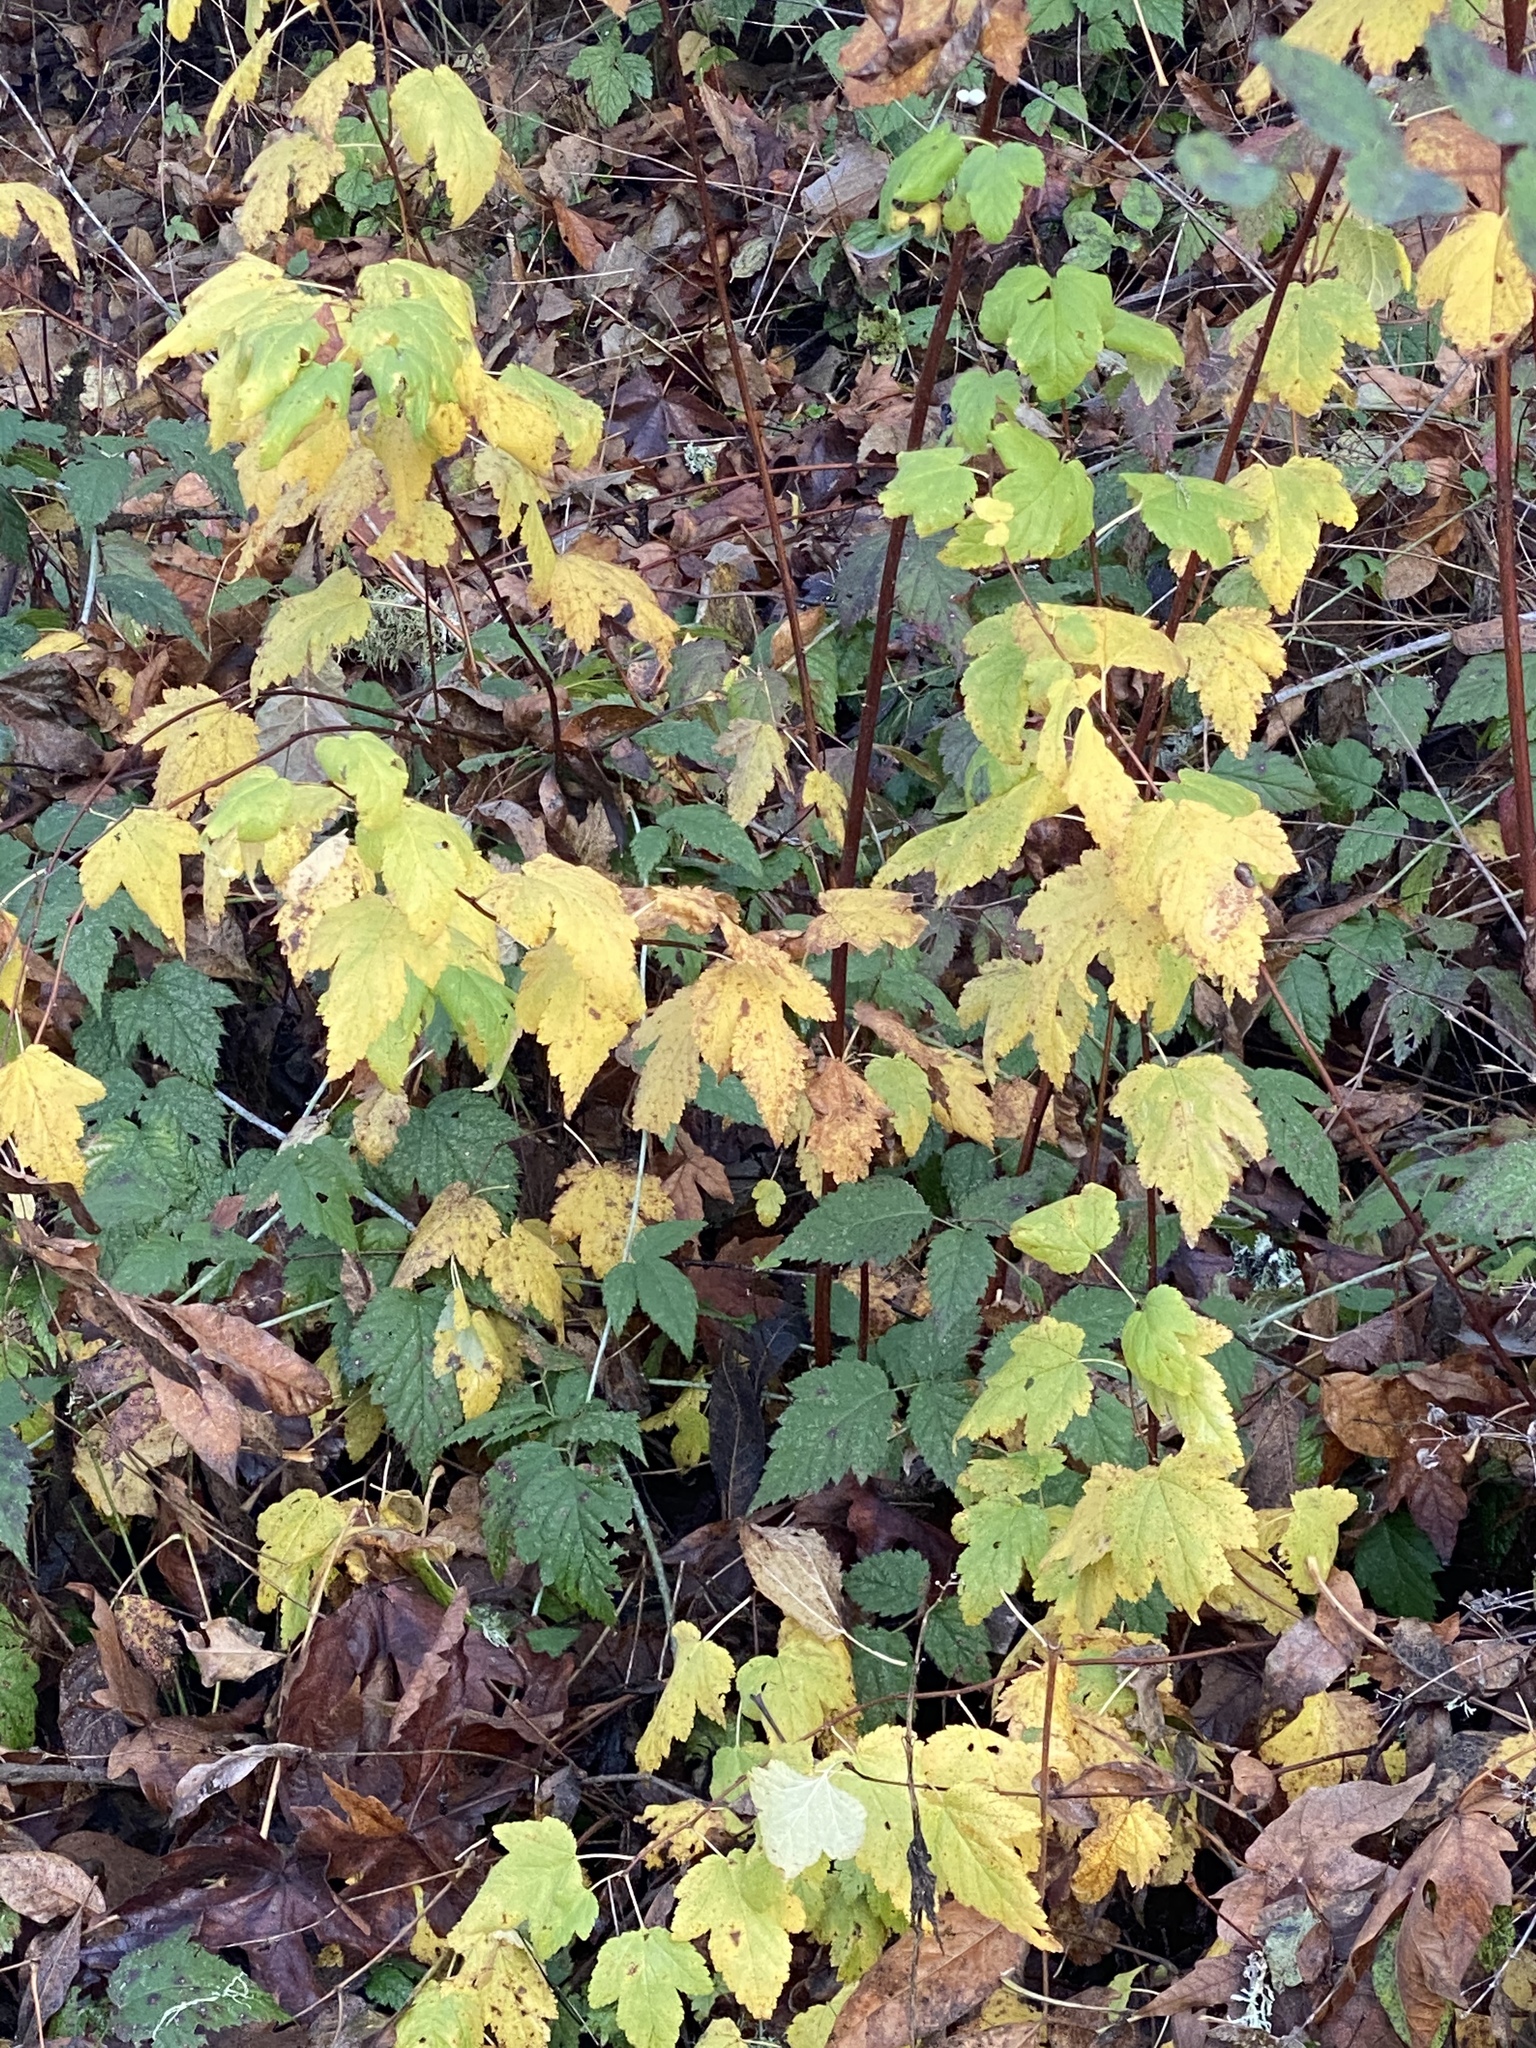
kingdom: Plantae
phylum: Tracheophyta
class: Magnoliopsida
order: Rosales
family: Rosaceae
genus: Physocarpus
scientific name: Physocarpus capitatus
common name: Pacific ninebark
